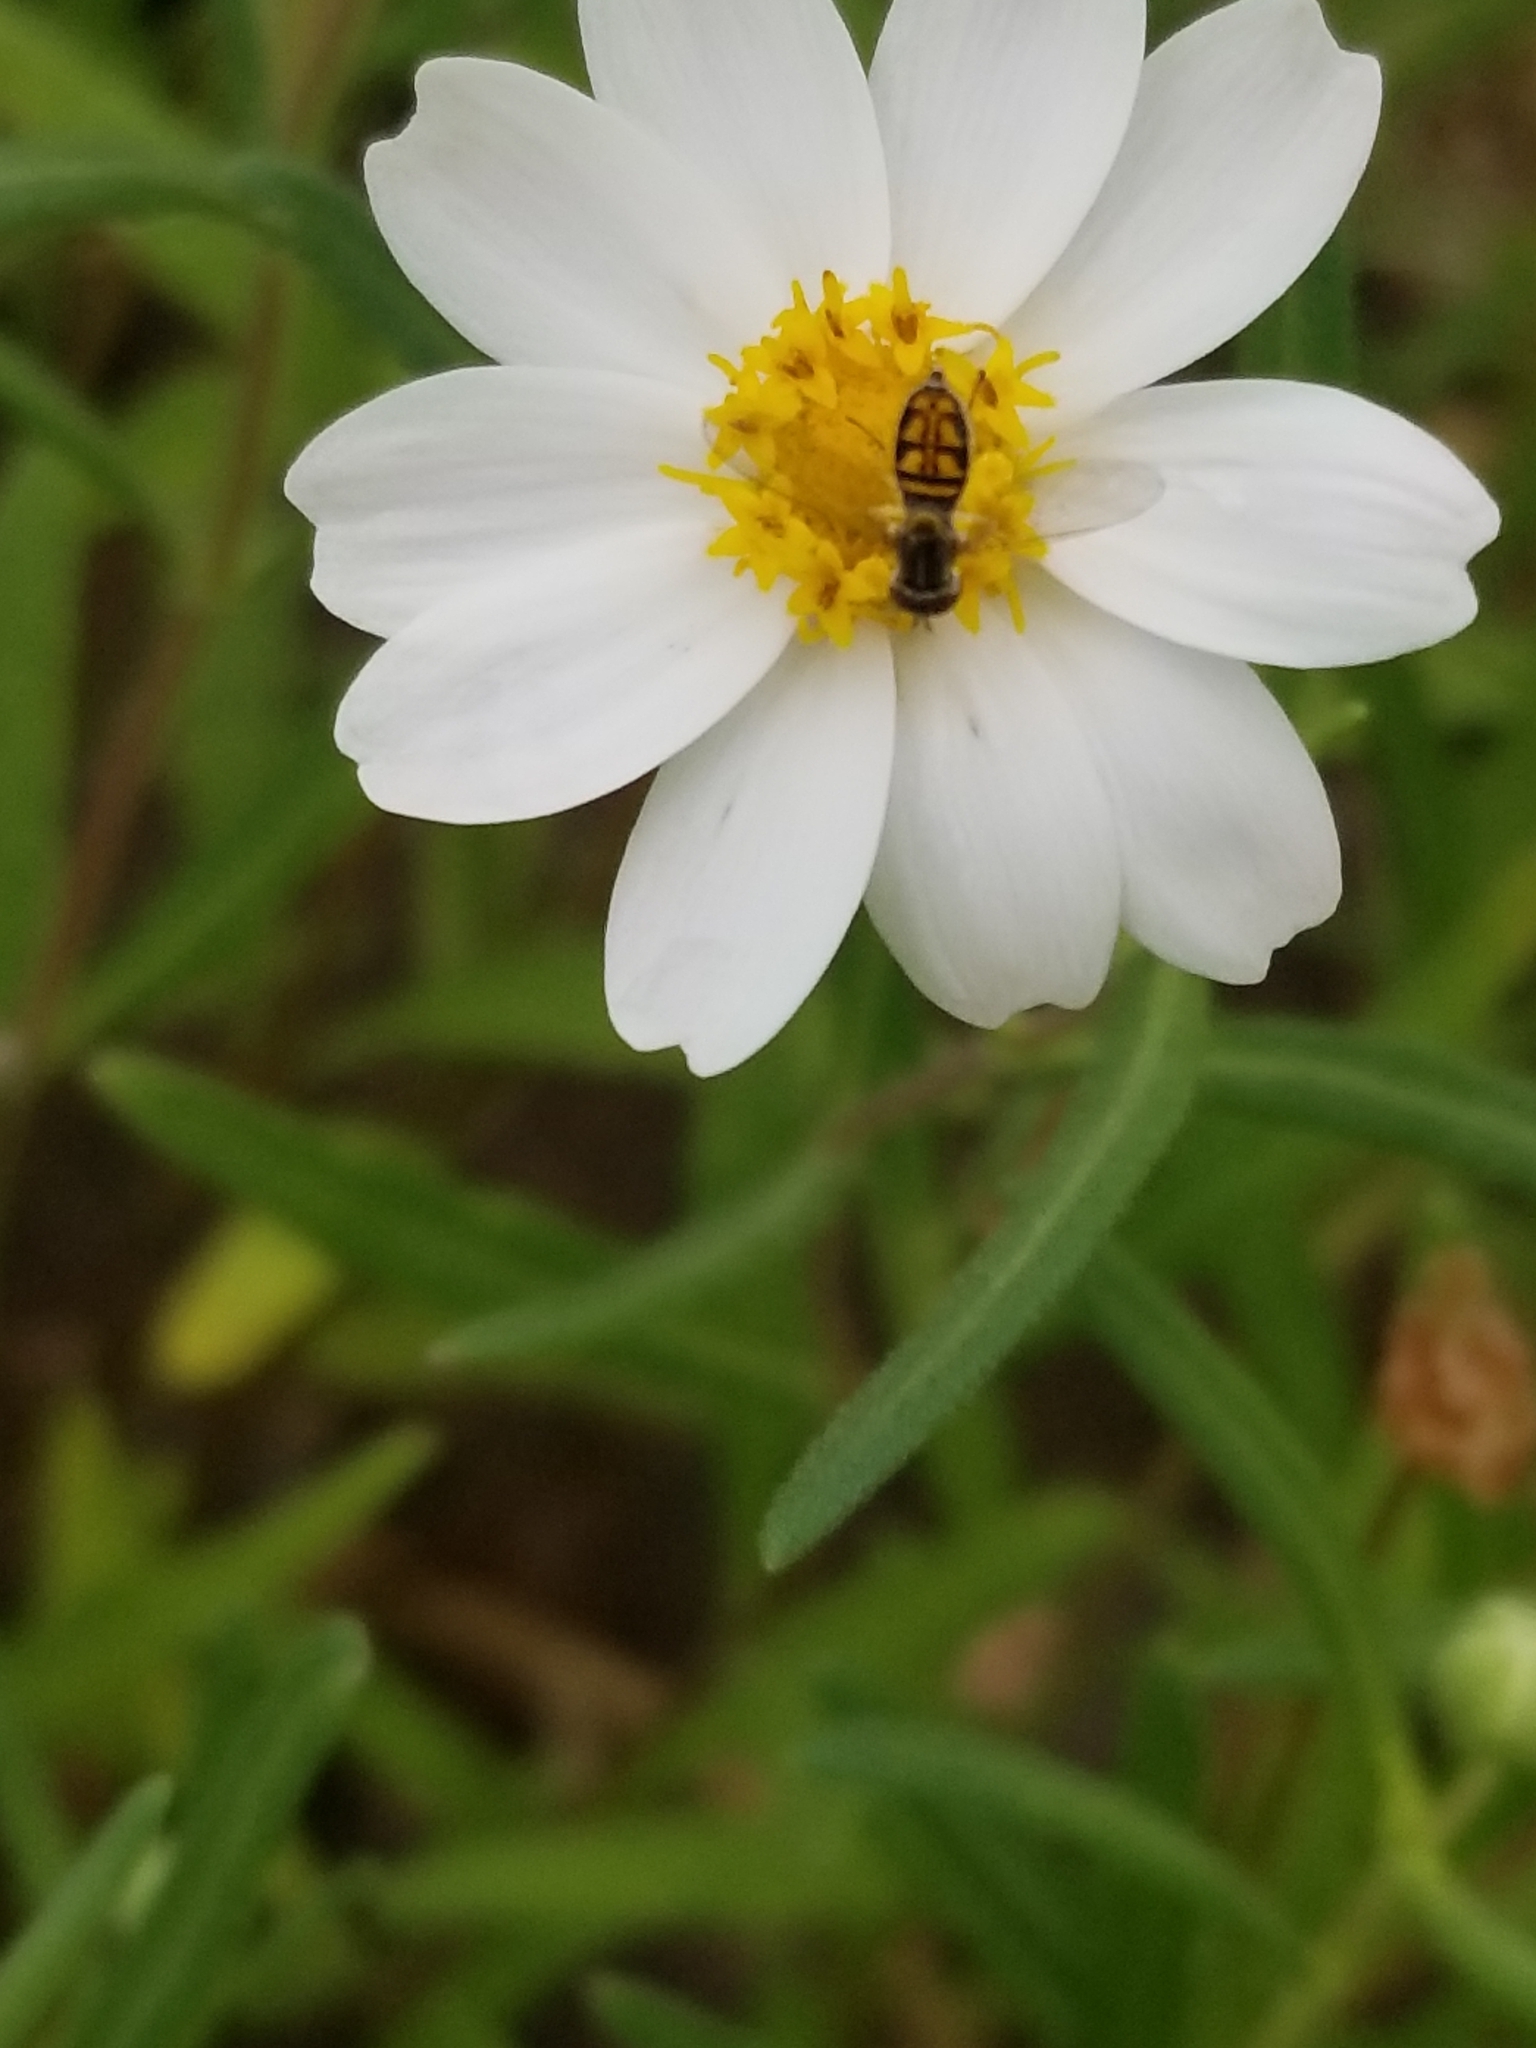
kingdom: Animalia
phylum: Arthropoda
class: Insecta
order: Diptera
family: Syrphidae
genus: Toxomerus
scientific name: Toxomerus marginatus
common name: Syrphid fly
